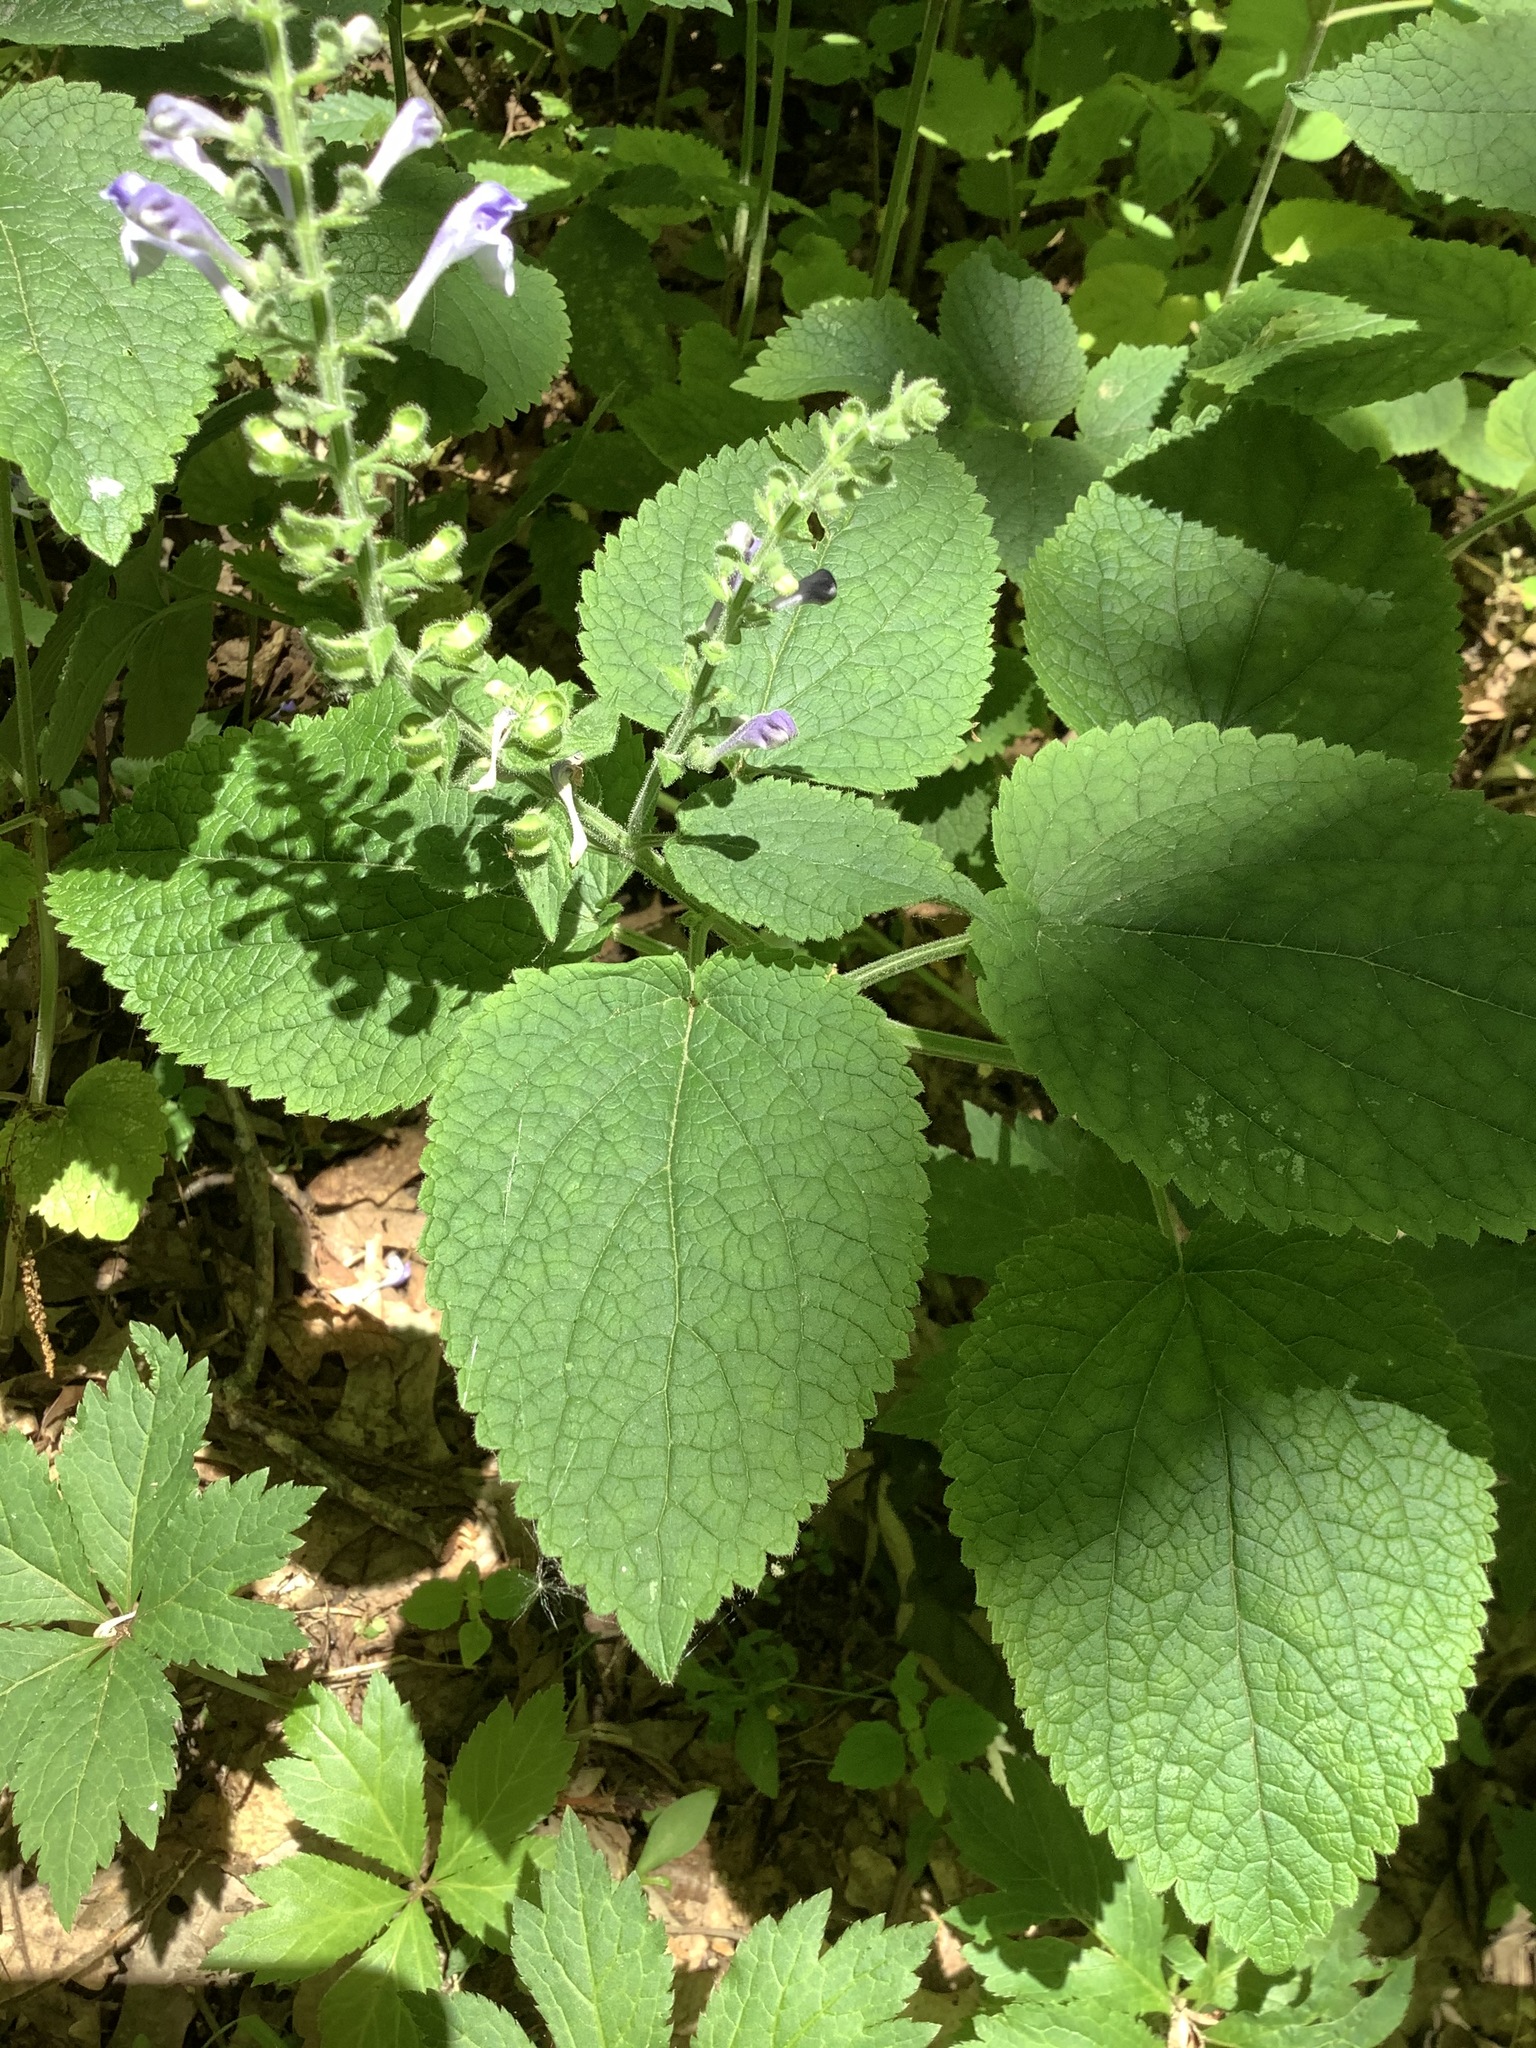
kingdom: Plantae
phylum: Tracheophyta
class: Magnoliopsida
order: Lamiales
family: Lamiaceae
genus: Scutellaria
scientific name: Scutellaria ovata
